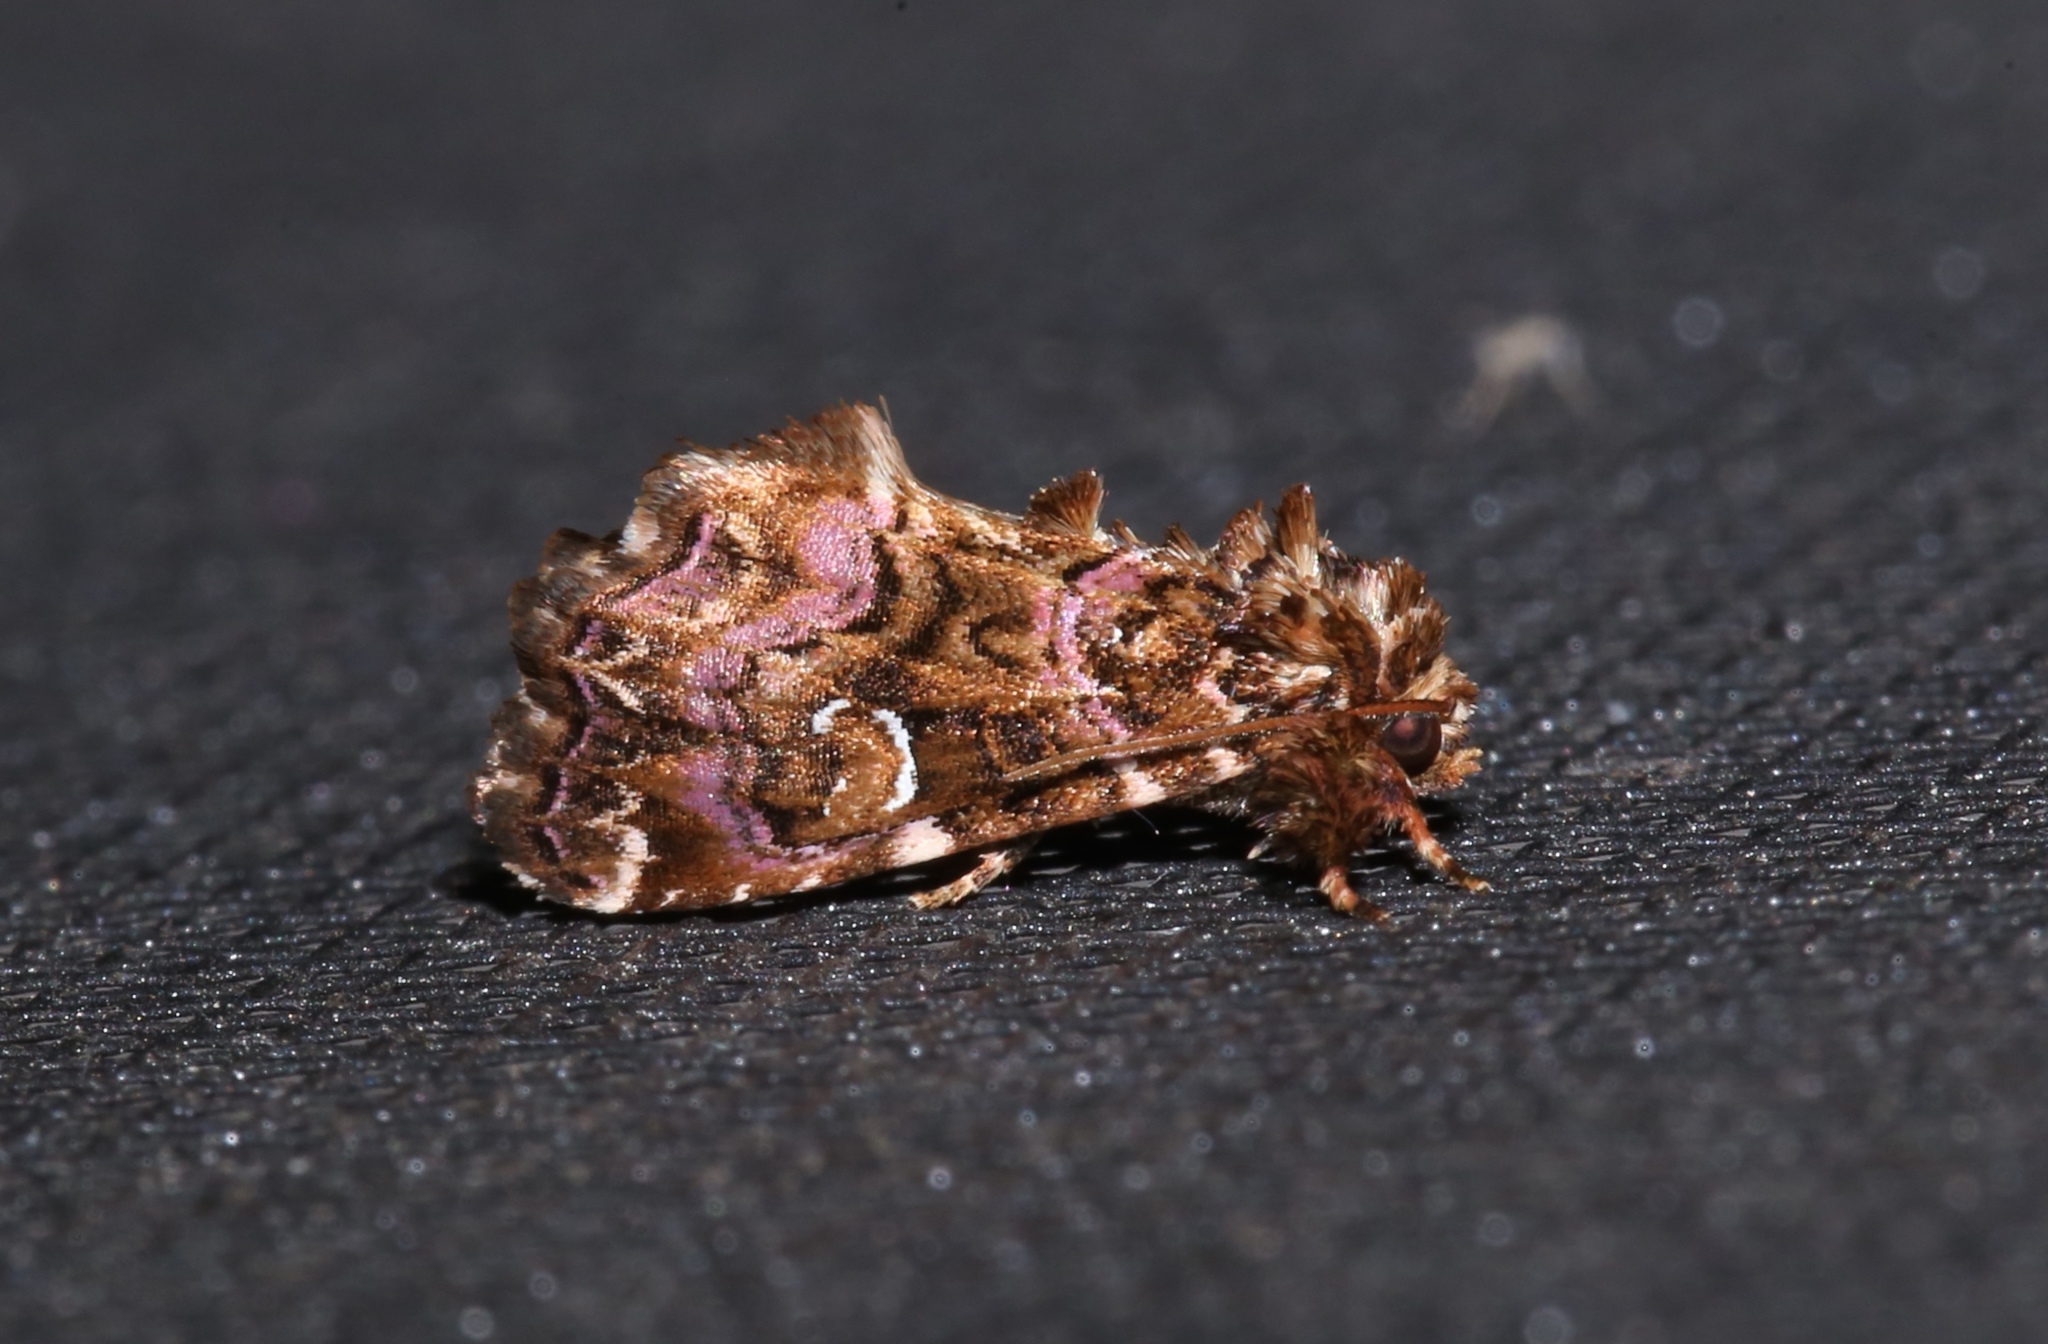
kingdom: Animalia
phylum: Arthropoda
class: Insecta
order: Lepidoptera
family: Noctuidae
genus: Callopistria
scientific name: Callopistria mollissima
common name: Pink-shaded fern moth
